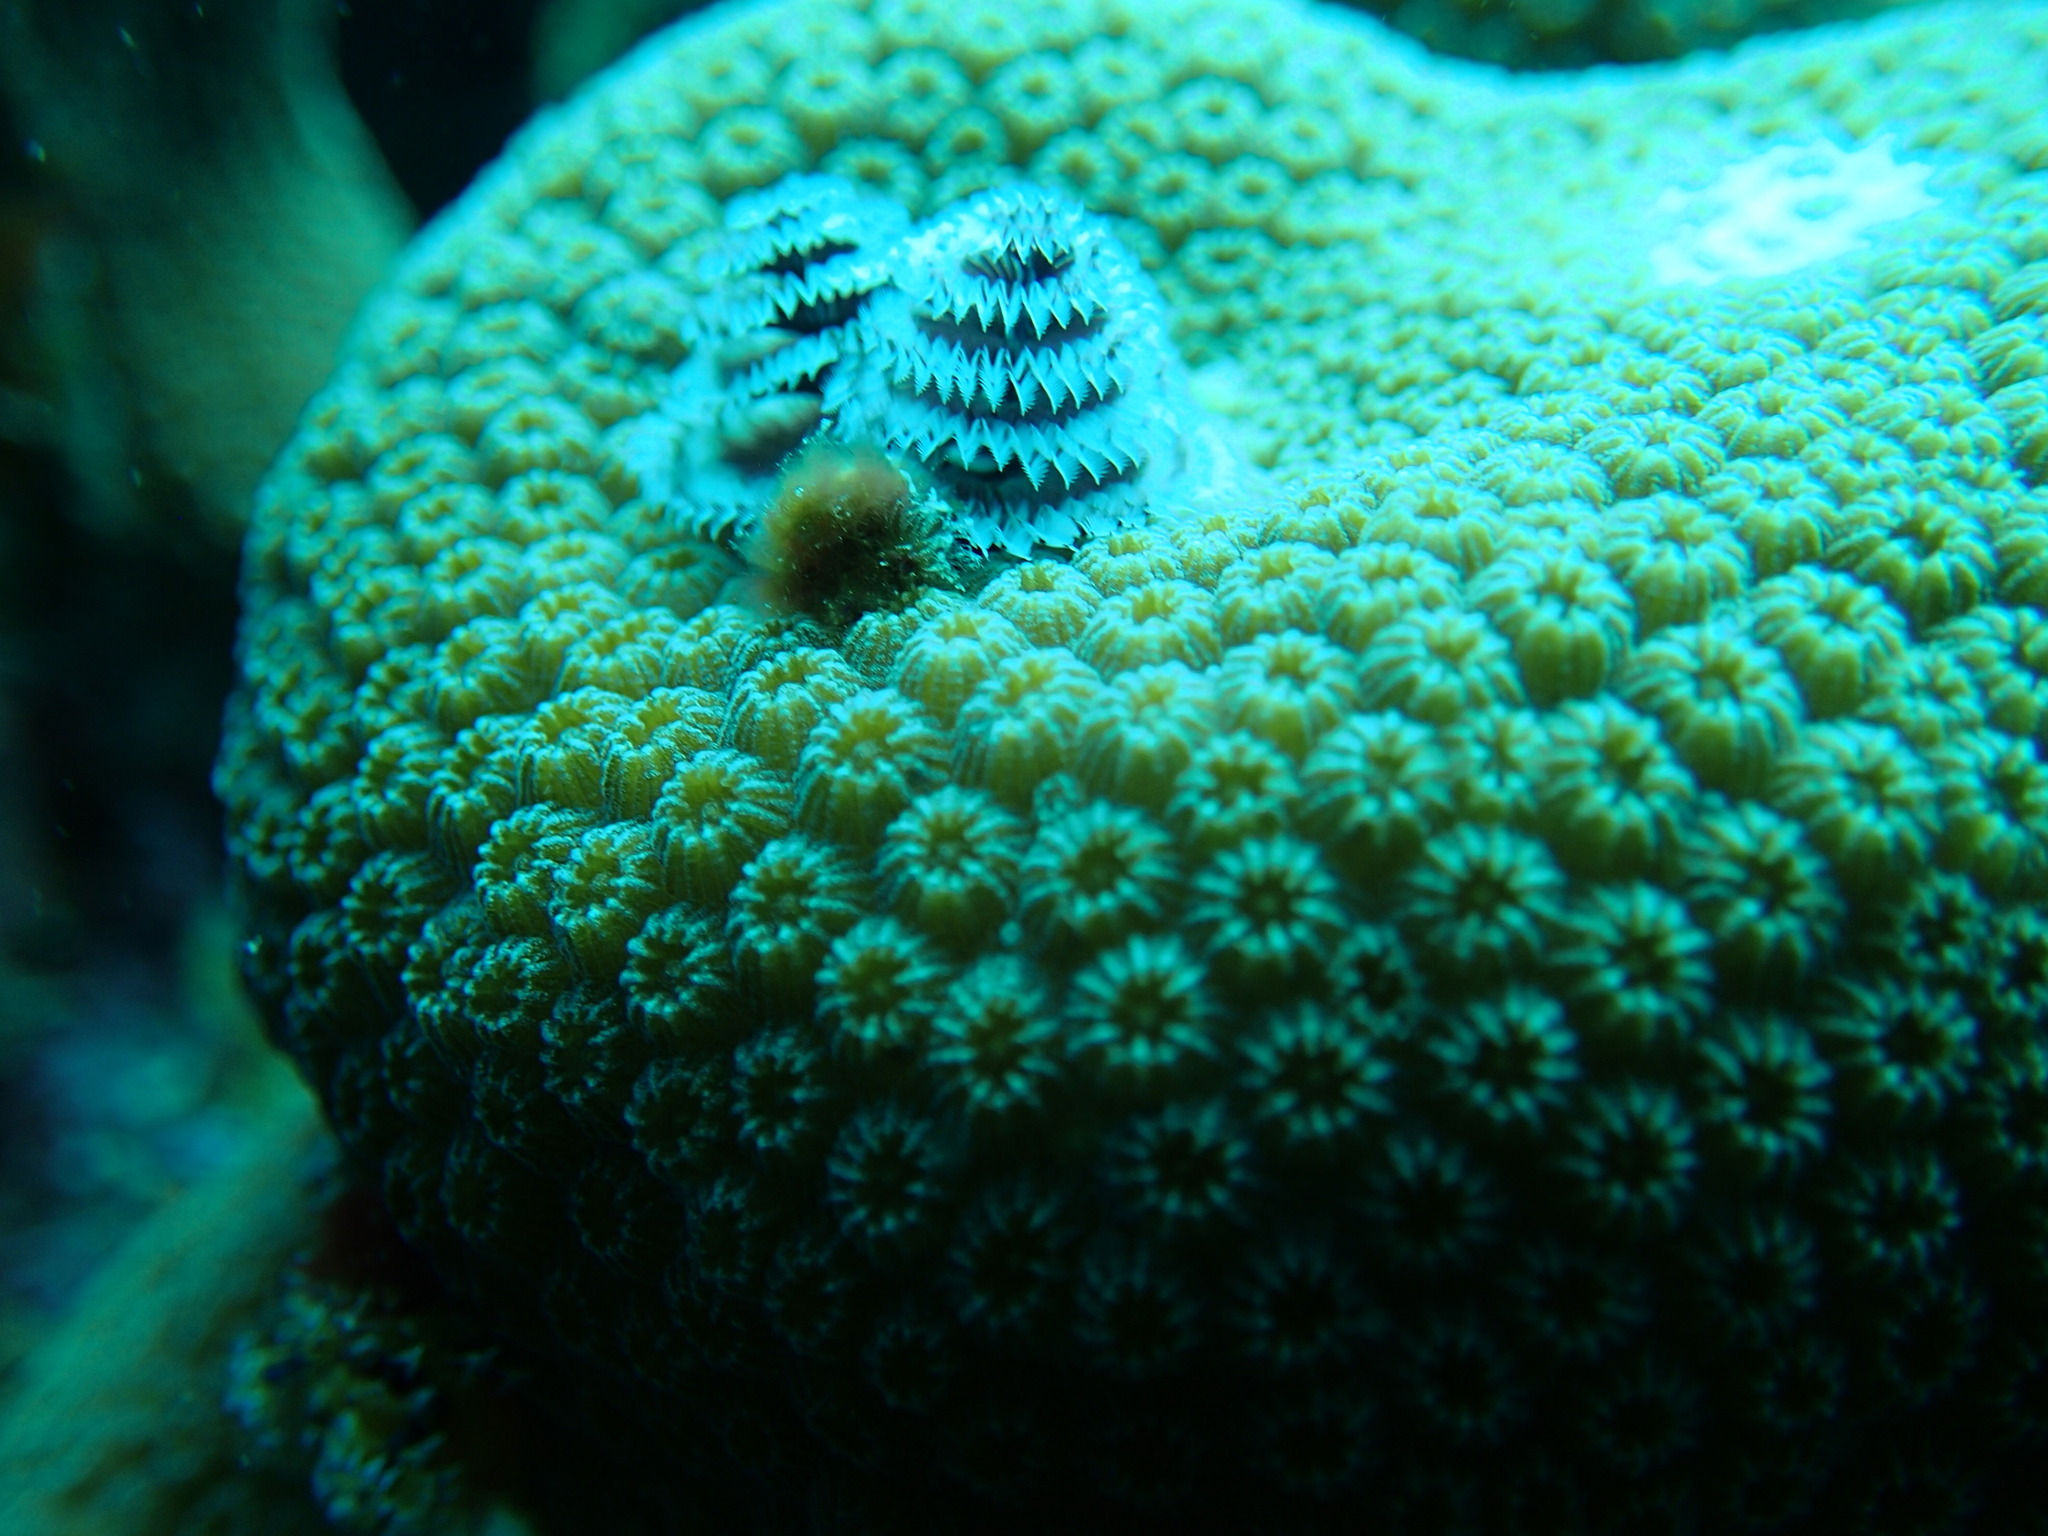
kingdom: Animalia
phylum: Annelida
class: Polychaeta
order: Sabellida
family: Serpulidae
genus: Spirobranchus
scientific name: Spirobranchus giganteus
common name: Christmas tree worm
